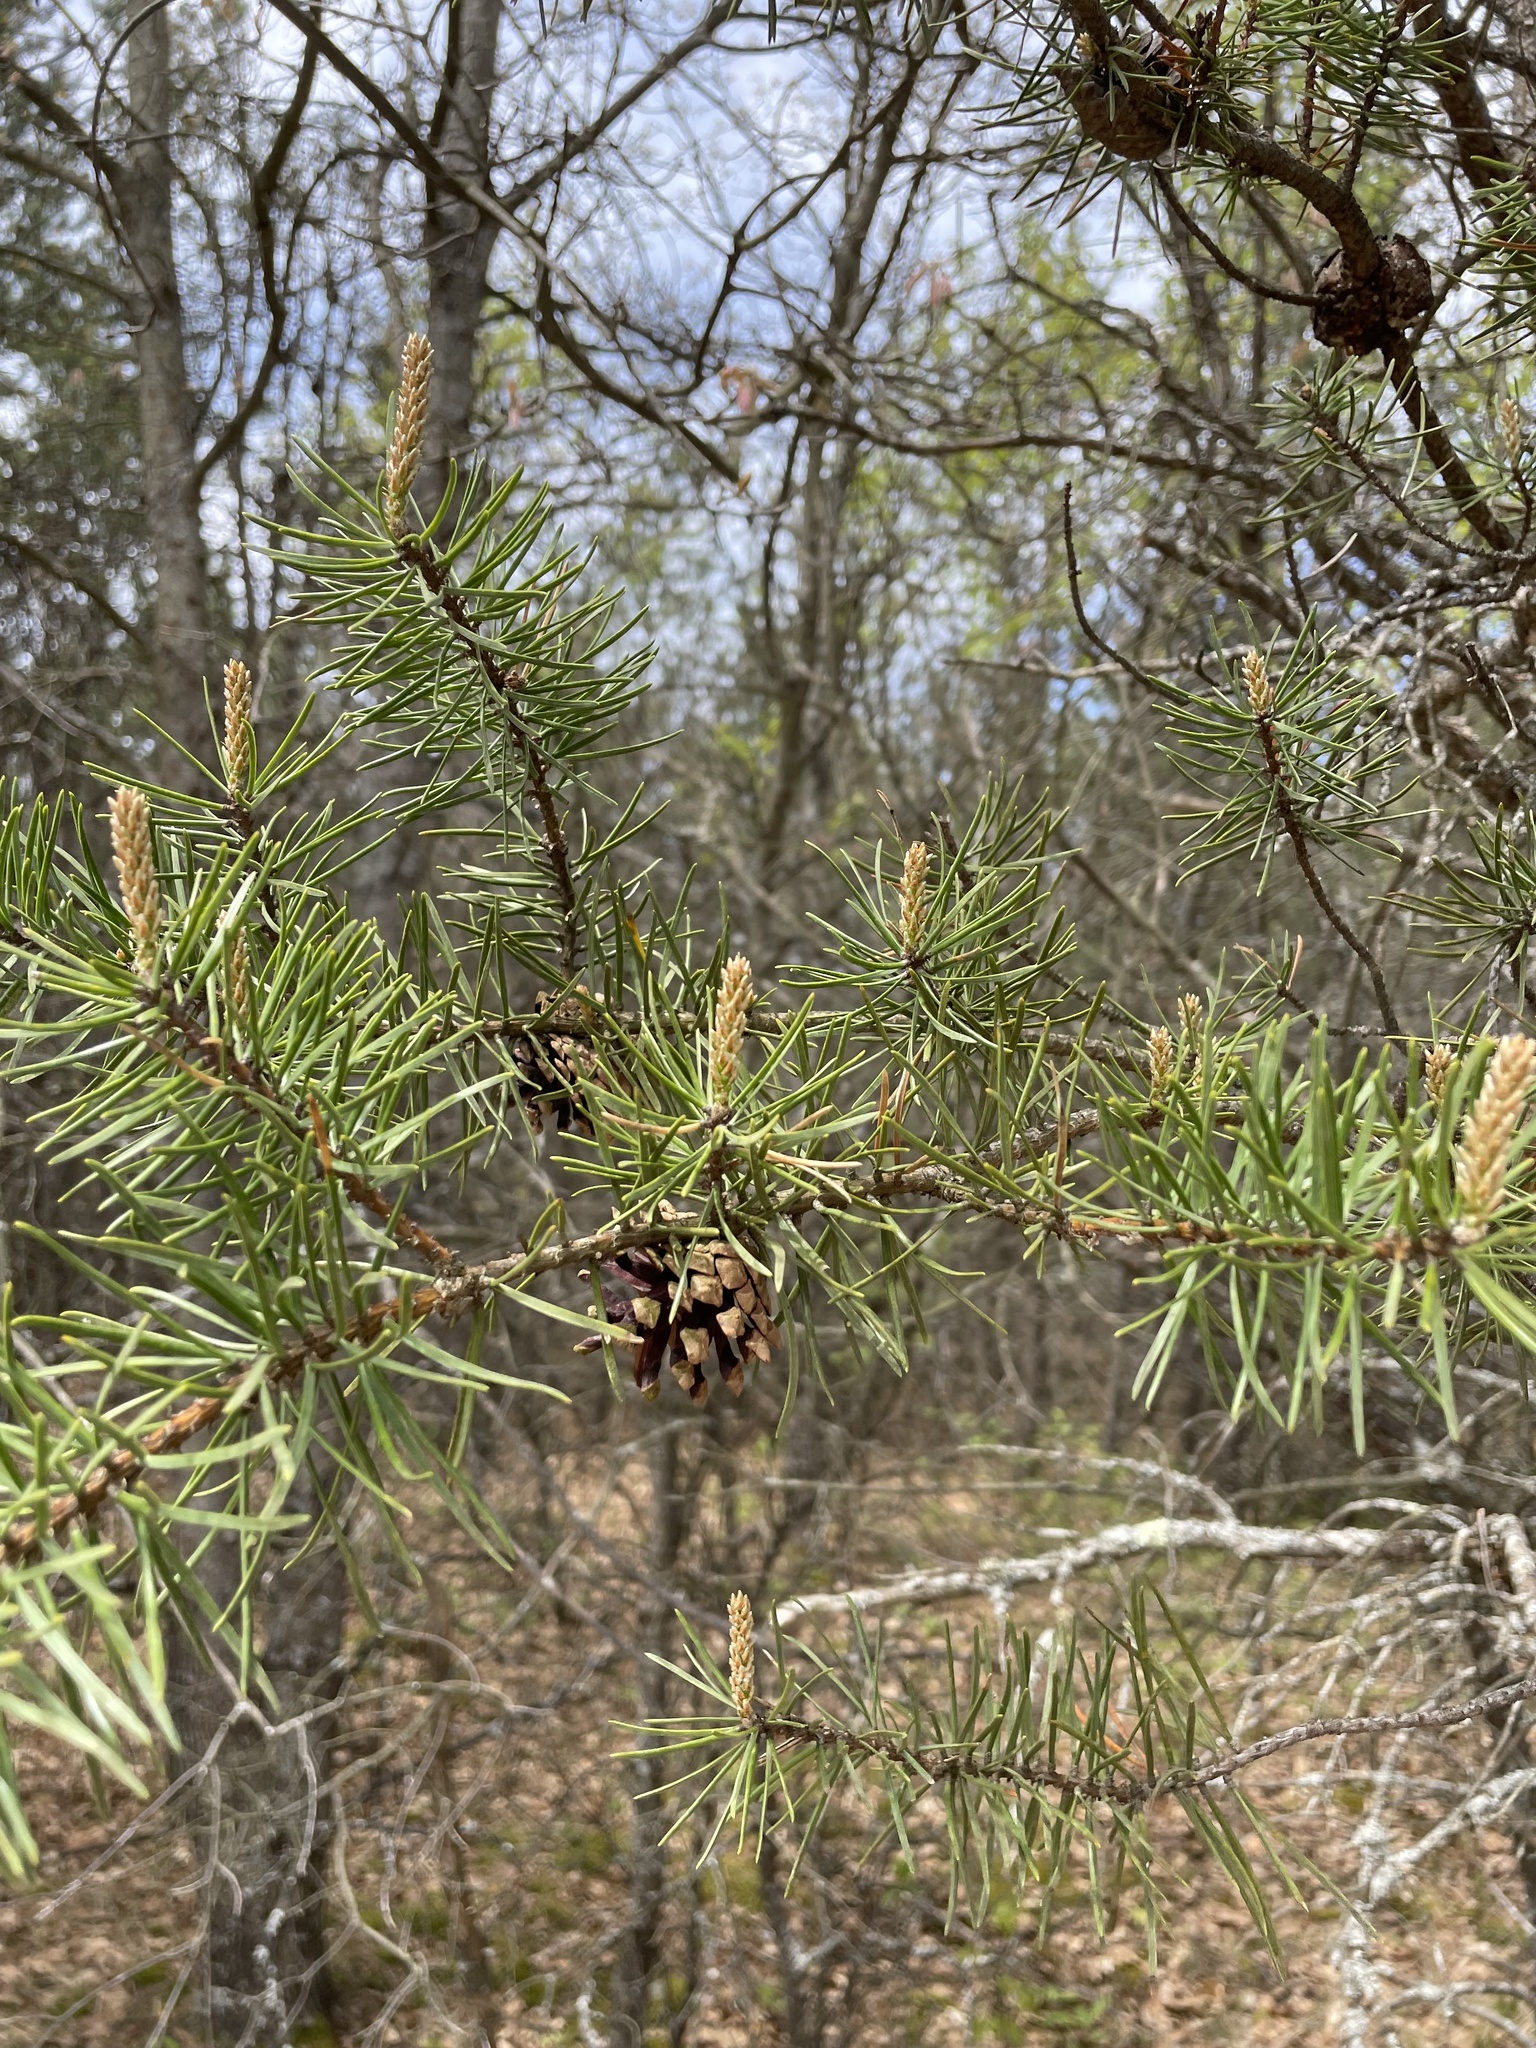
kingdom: Plantae
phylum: Tracheophyta
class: Pinopsida
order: Pinales
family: Pinaceae
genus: Pinus
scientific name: Pinus banksiana
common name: Jack pine
